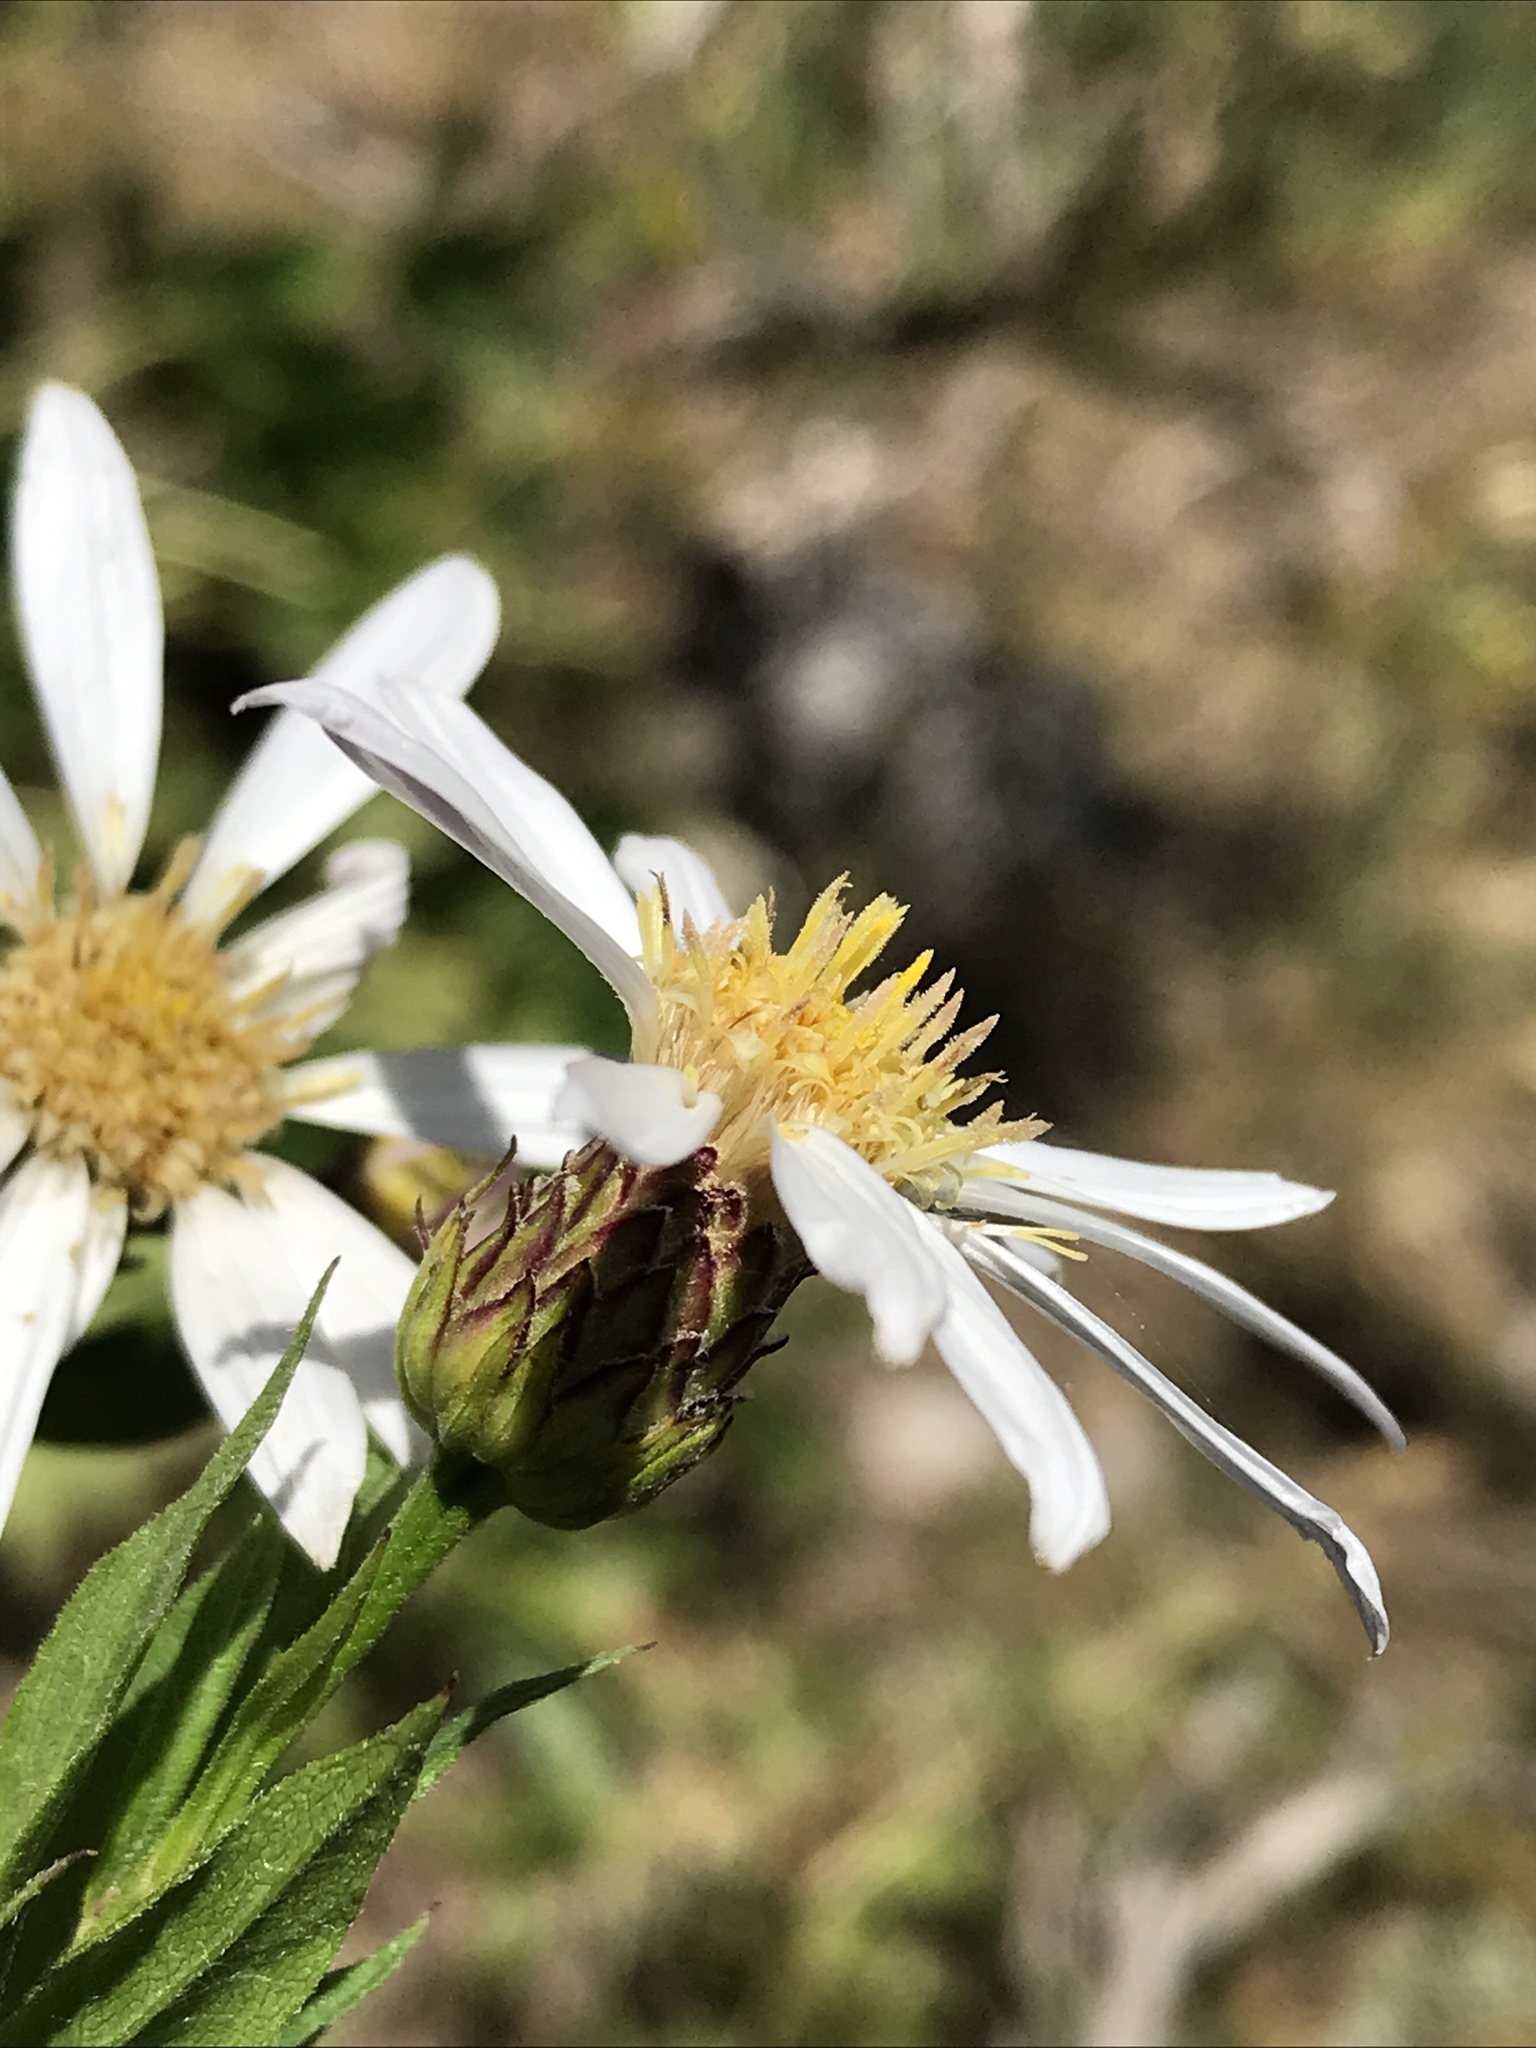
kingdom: Plantae
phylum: Tracheophyta
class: Magnoliopsida
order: Asterales
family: Asteraceae
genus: Eucephalus
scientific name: Eucephalus engelmannii
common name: Engelmann's aster
